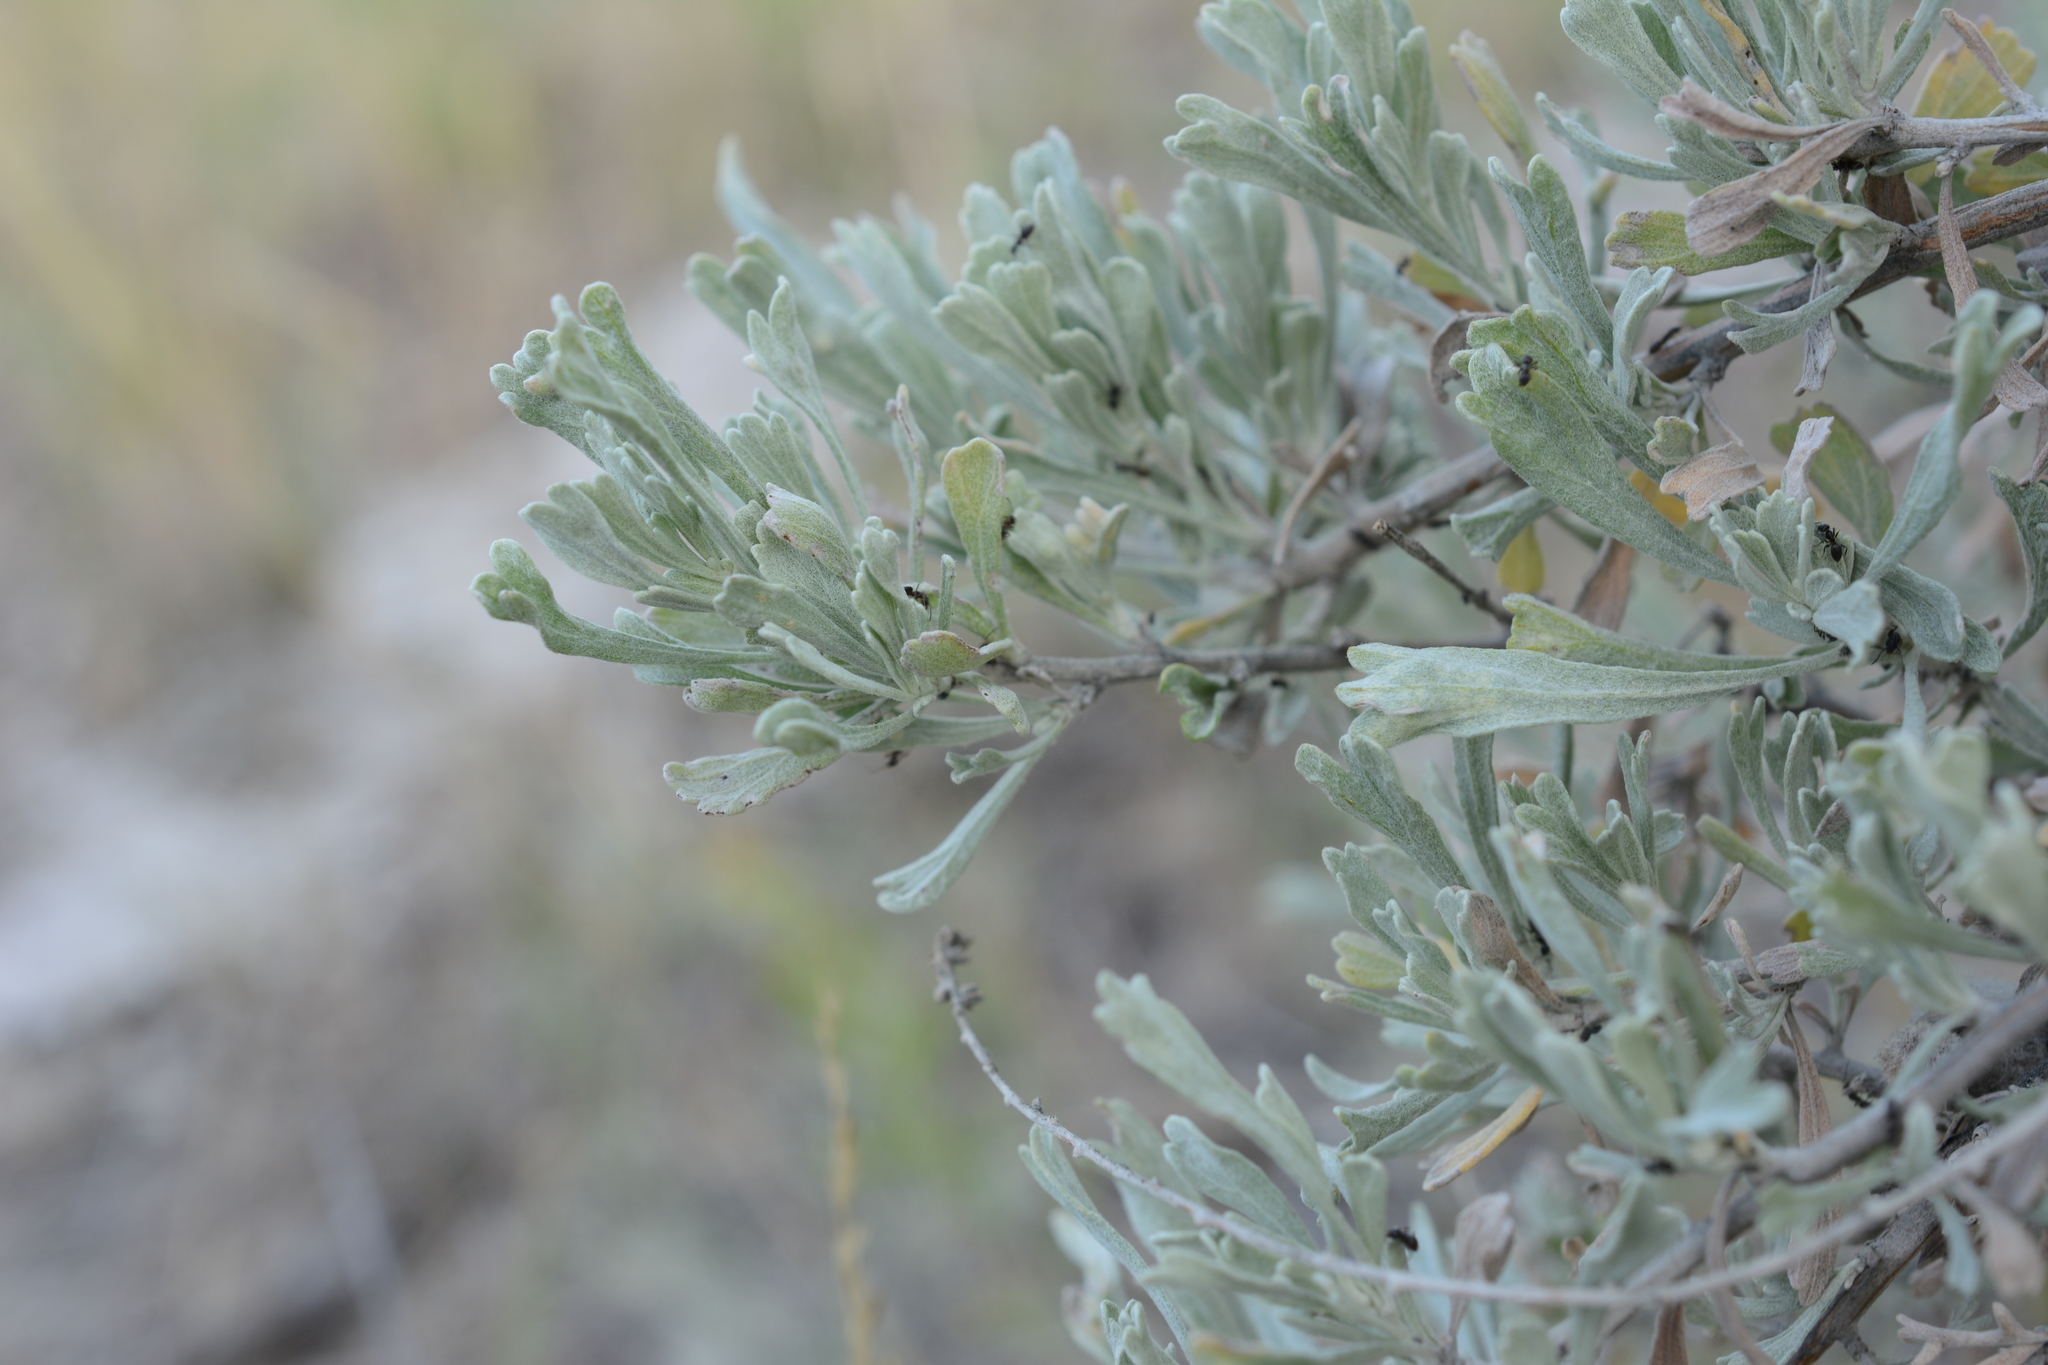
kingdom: Plantae
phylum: Tracheophyta
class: Magnoliopsida
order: Asterales
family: Asteraceae
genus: Artemisia
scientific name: Artemisia tridentata
